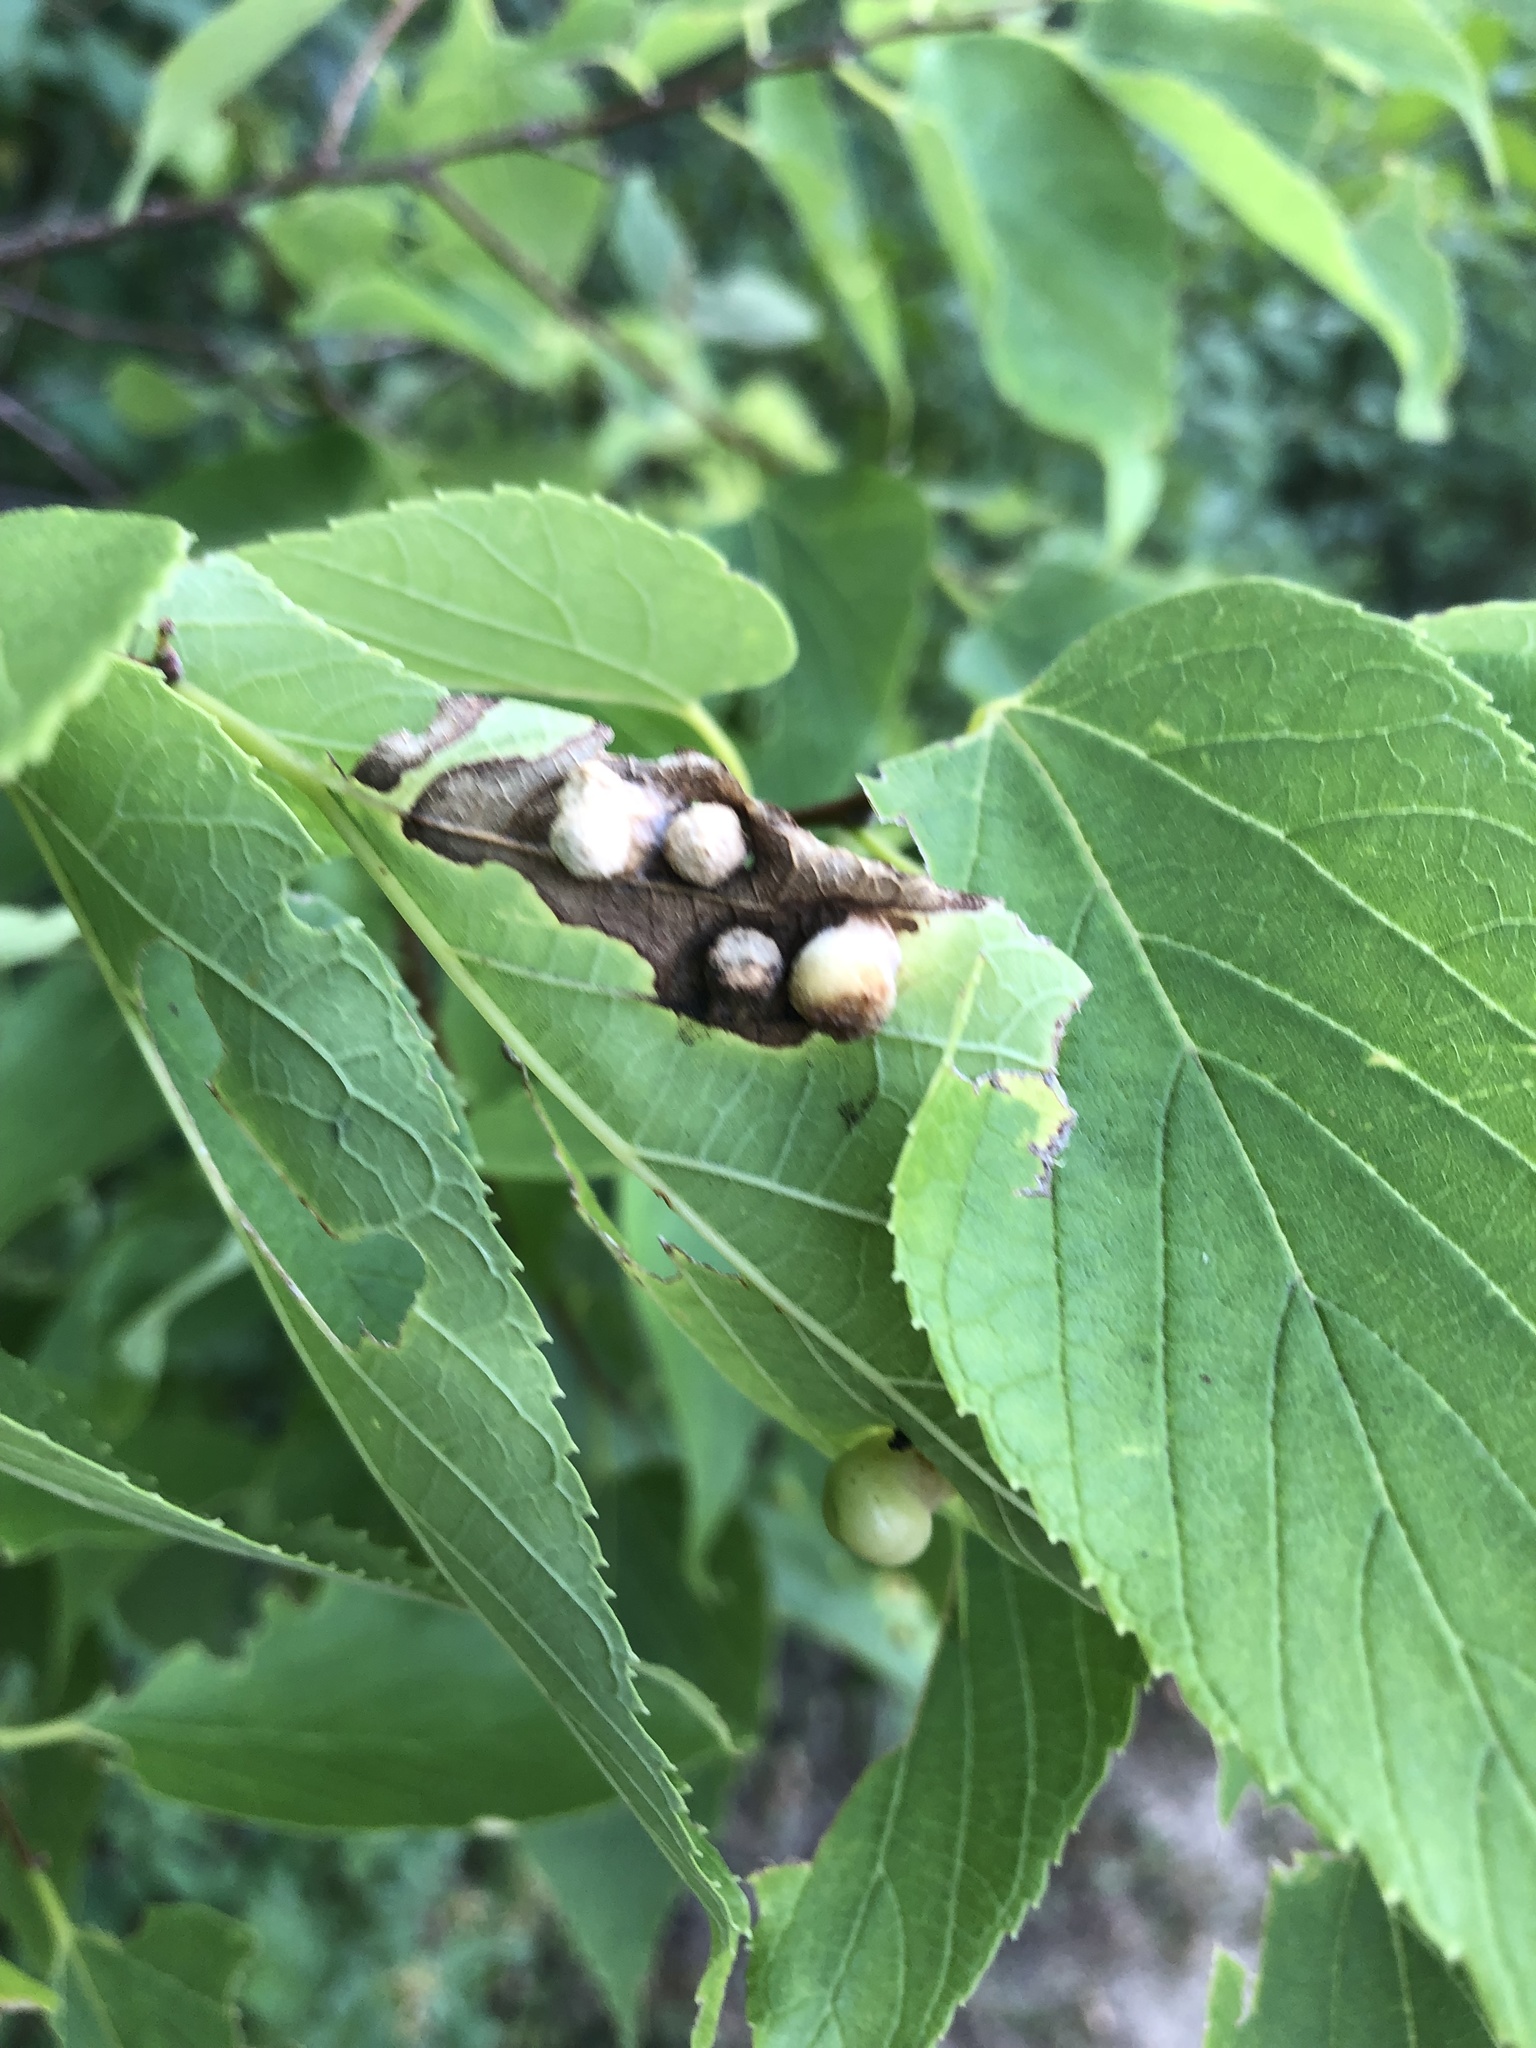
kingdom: Animalia
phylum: Arthropoda
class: Insecta
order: Hemiptera
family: Aphalaridae
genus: Pachypsylla
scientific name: Pachypsylla celtidismamma
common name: Hackberry nipplegall psyllid
